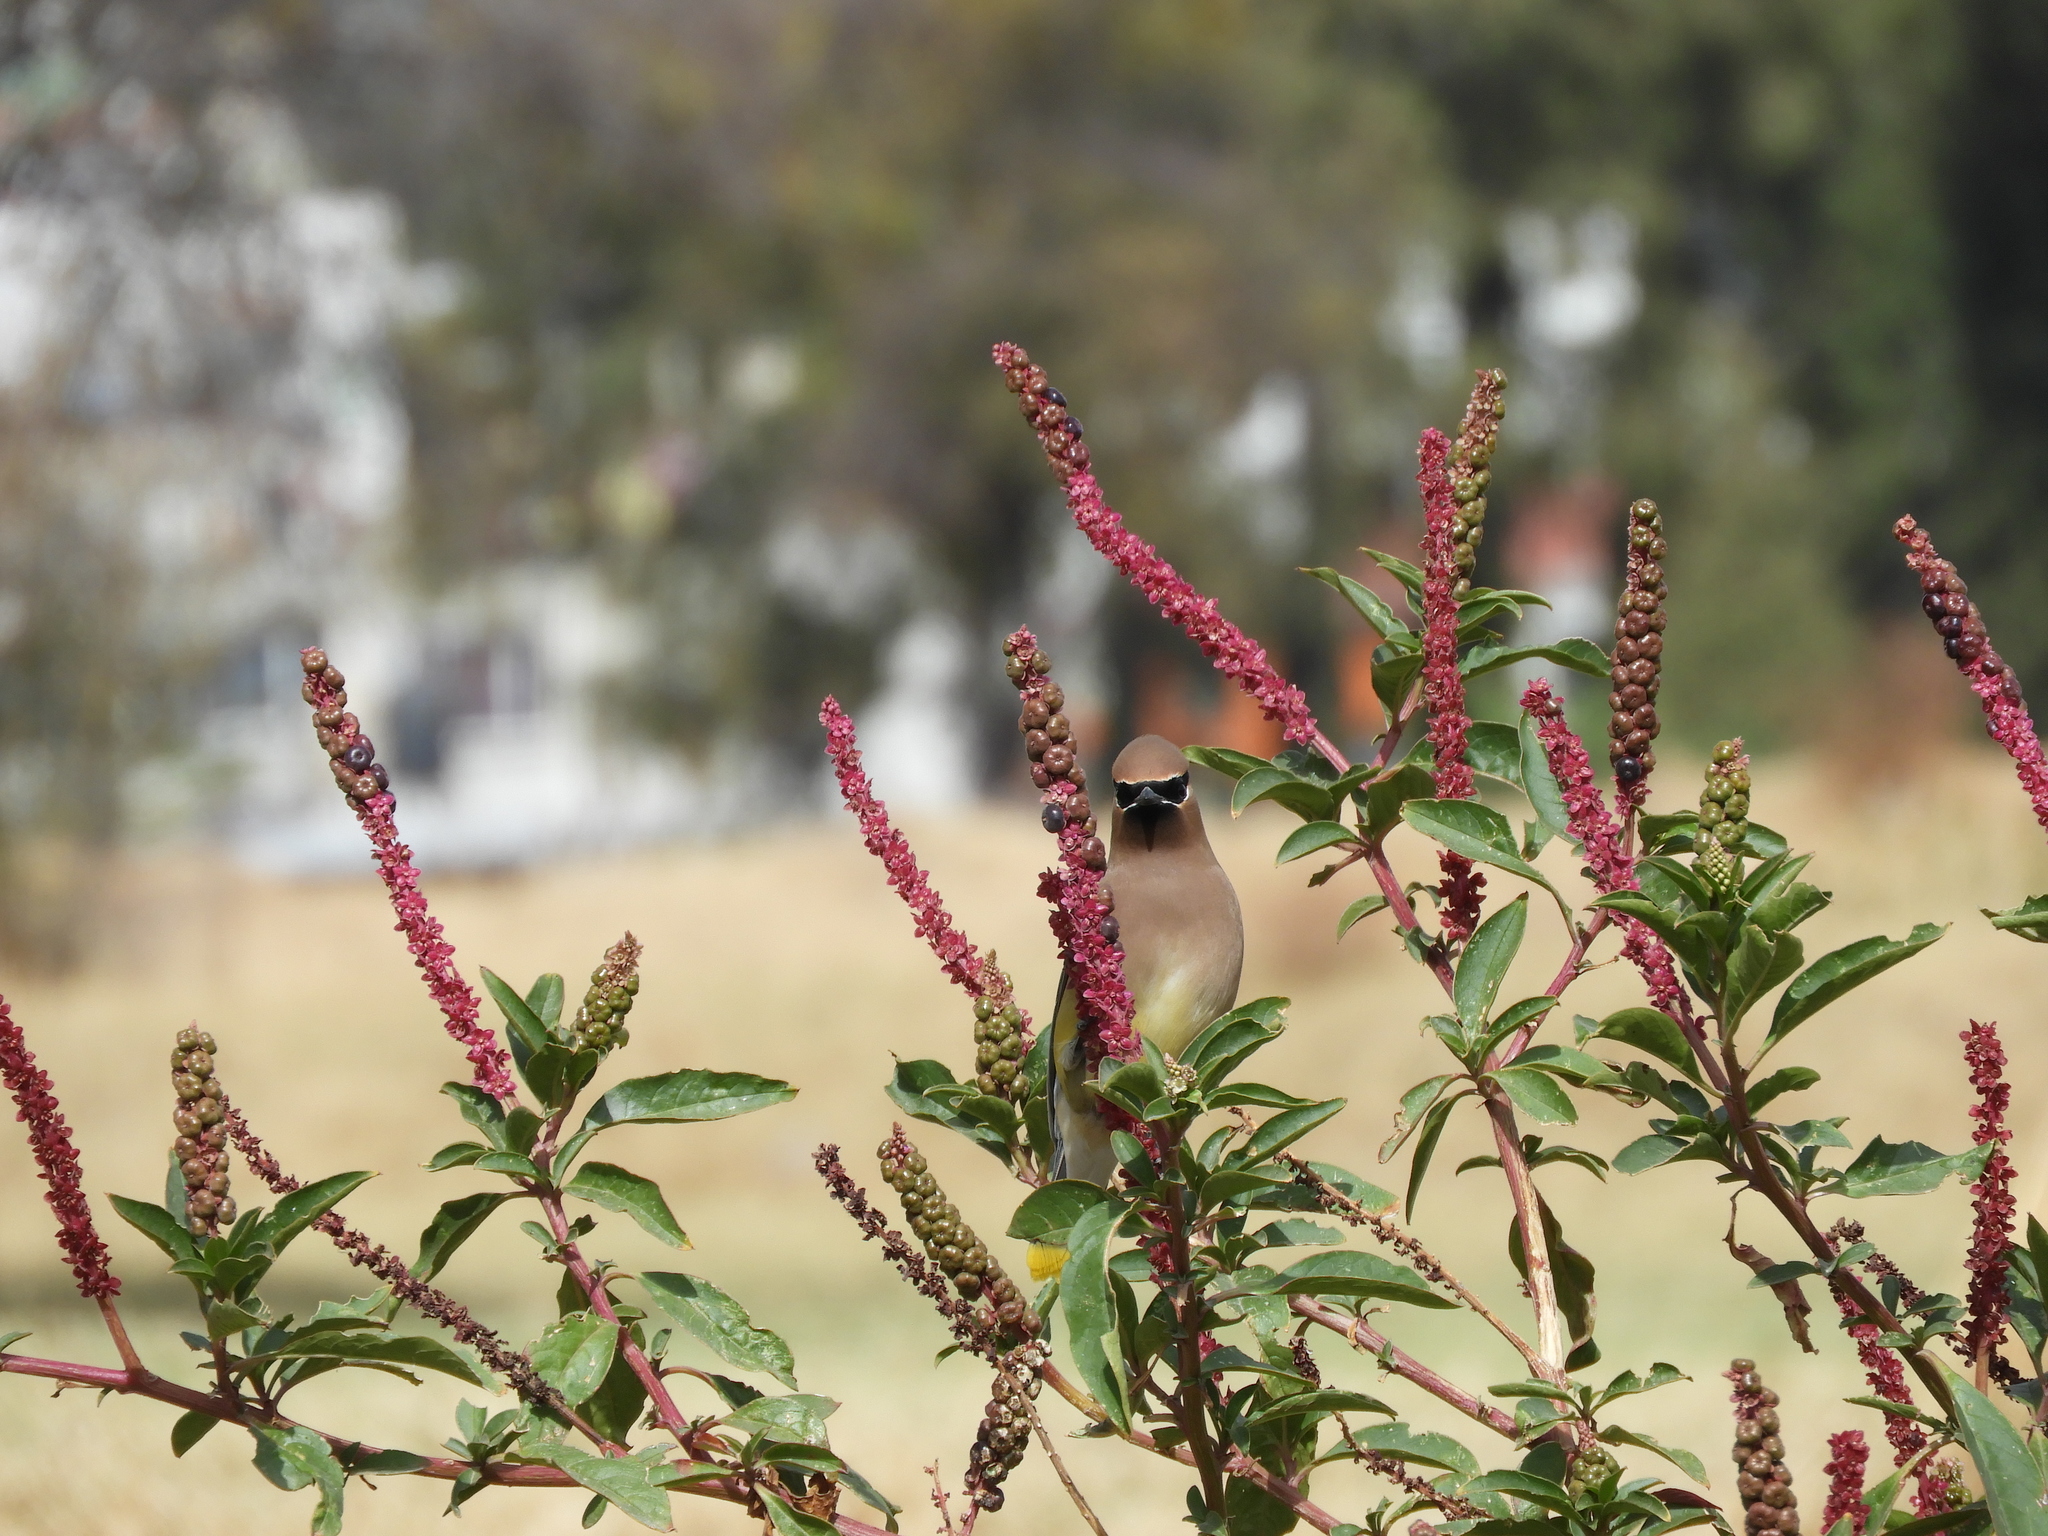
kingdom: Animalia
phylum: Chordata
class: Aves
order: Passeriformes
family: Bombycillidae
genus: Bombycilla
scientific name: Bombycilla cedrorum
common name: Cedar waxwing
